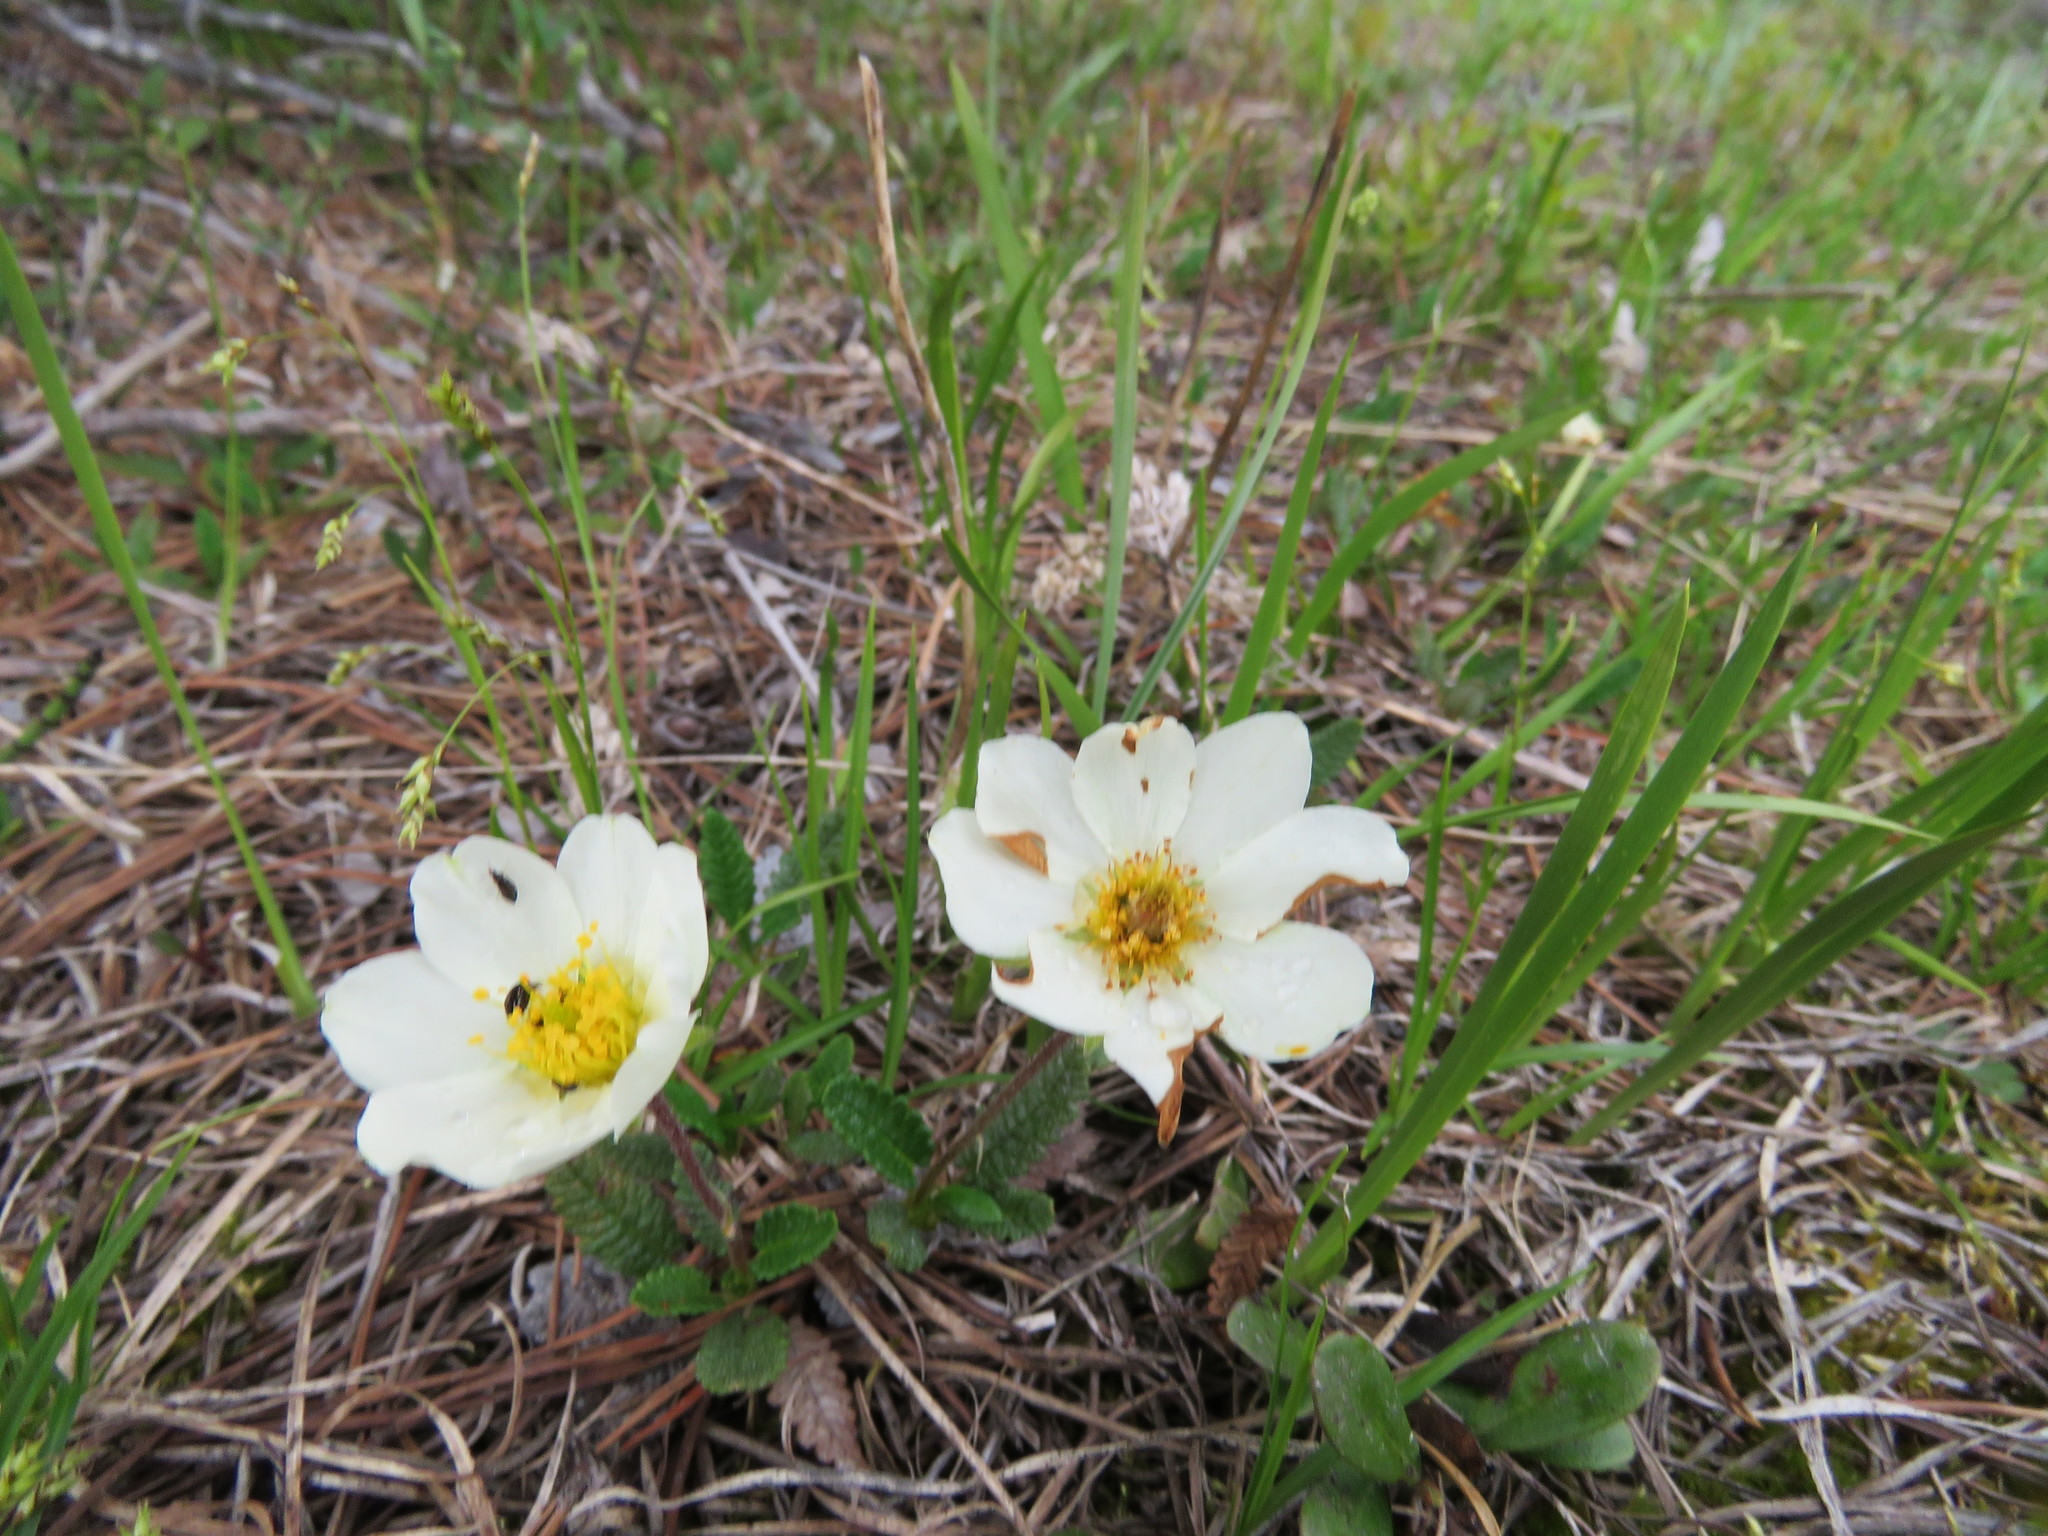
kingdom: Plantae
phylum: Tracheophyta
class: Magnoliopsida
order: Rosales
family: Rosaceae
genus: Dryas
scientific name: Dryas octopetala
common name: Eight-petal mountain-avens
